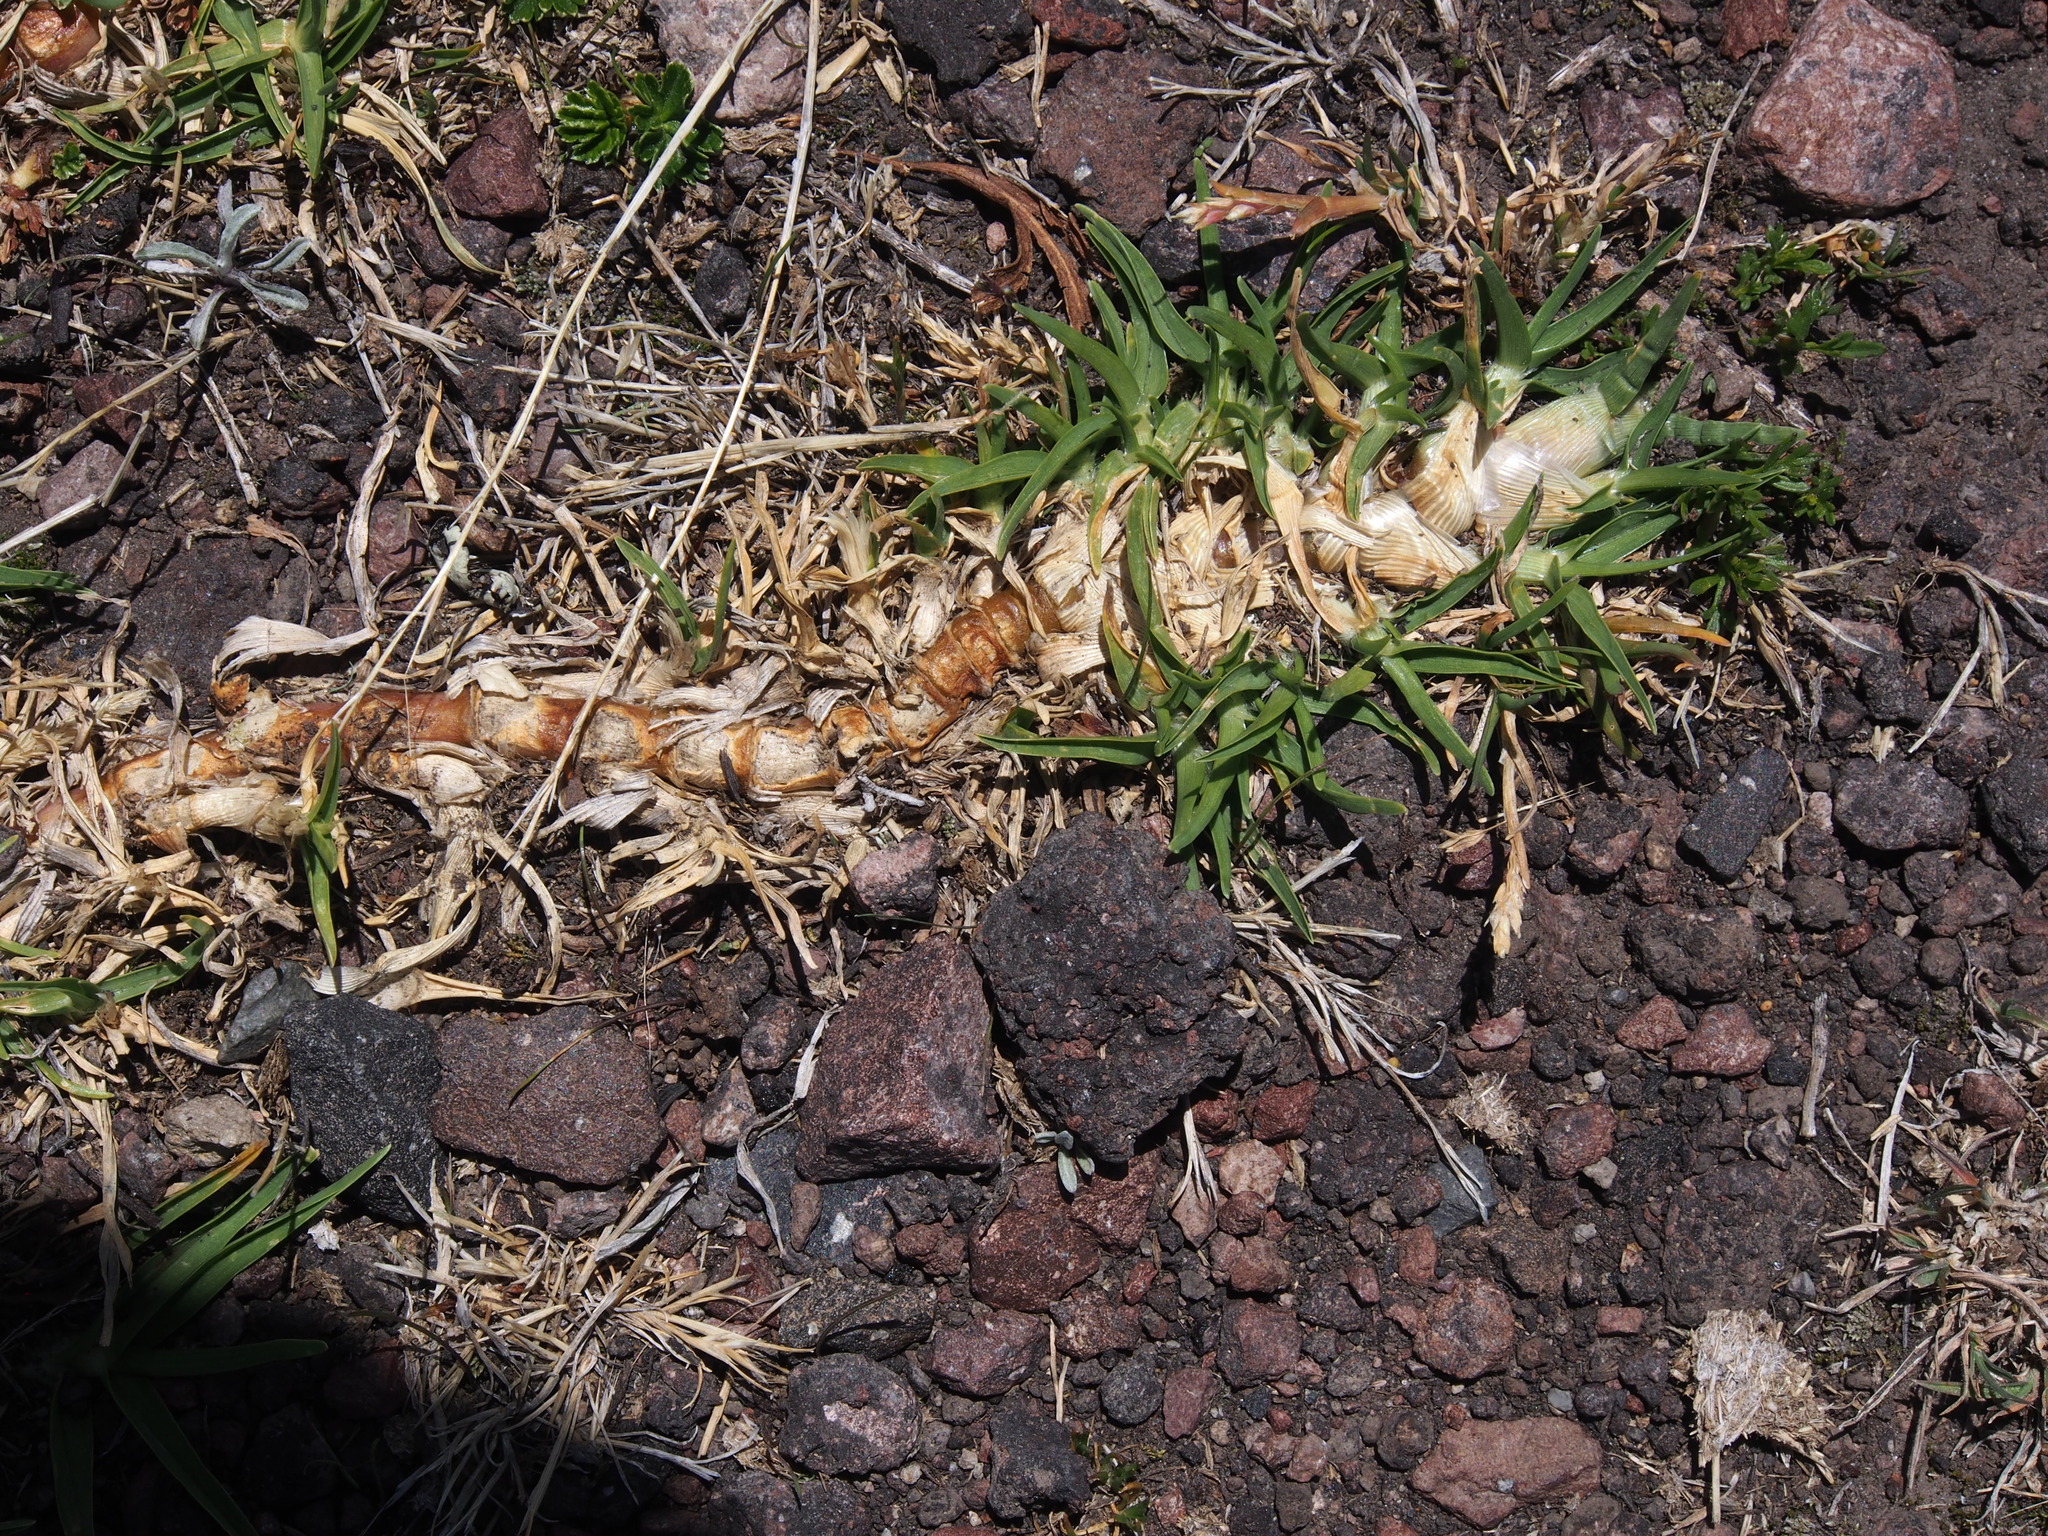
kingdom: Plantae
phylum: Tracheophyta
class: Liliopsida
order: Poales
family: Poaceae
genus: Cenchrus
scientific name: Cenchrus clandestinus
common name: Kikuyugrass
